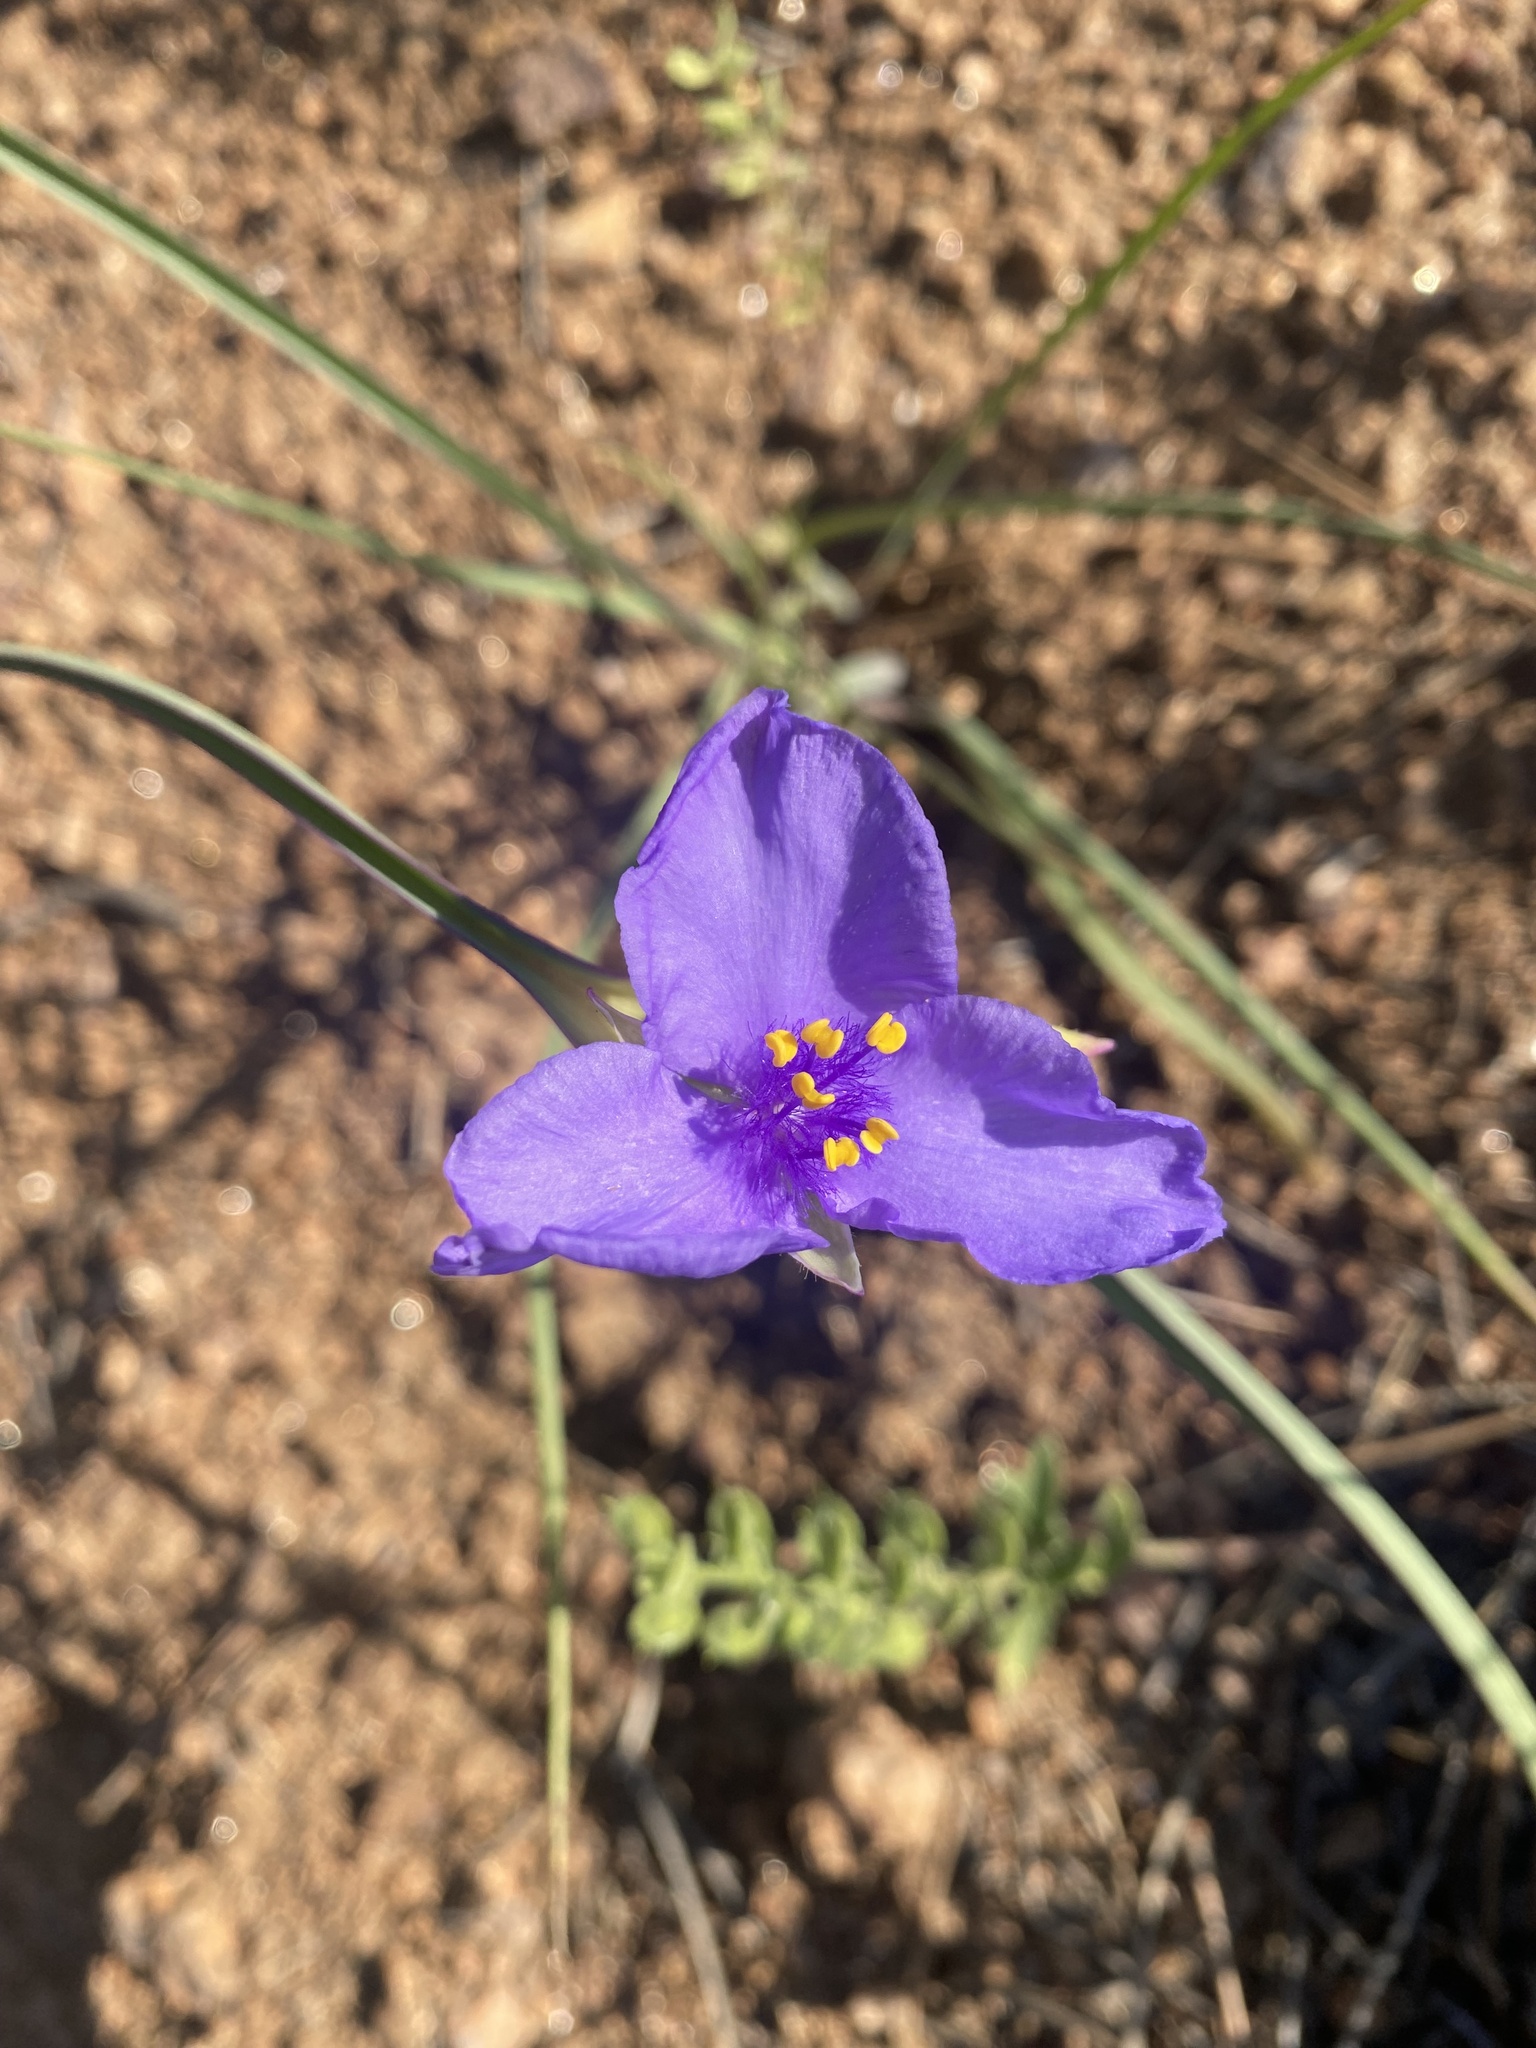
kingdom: Plantae
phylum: Tracheophyta
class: Liliopsida
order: Commelinales
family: Commelinaceae
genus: Tradescantia
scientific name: Tradescantia occidentalis
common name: Prairie spiderwort
